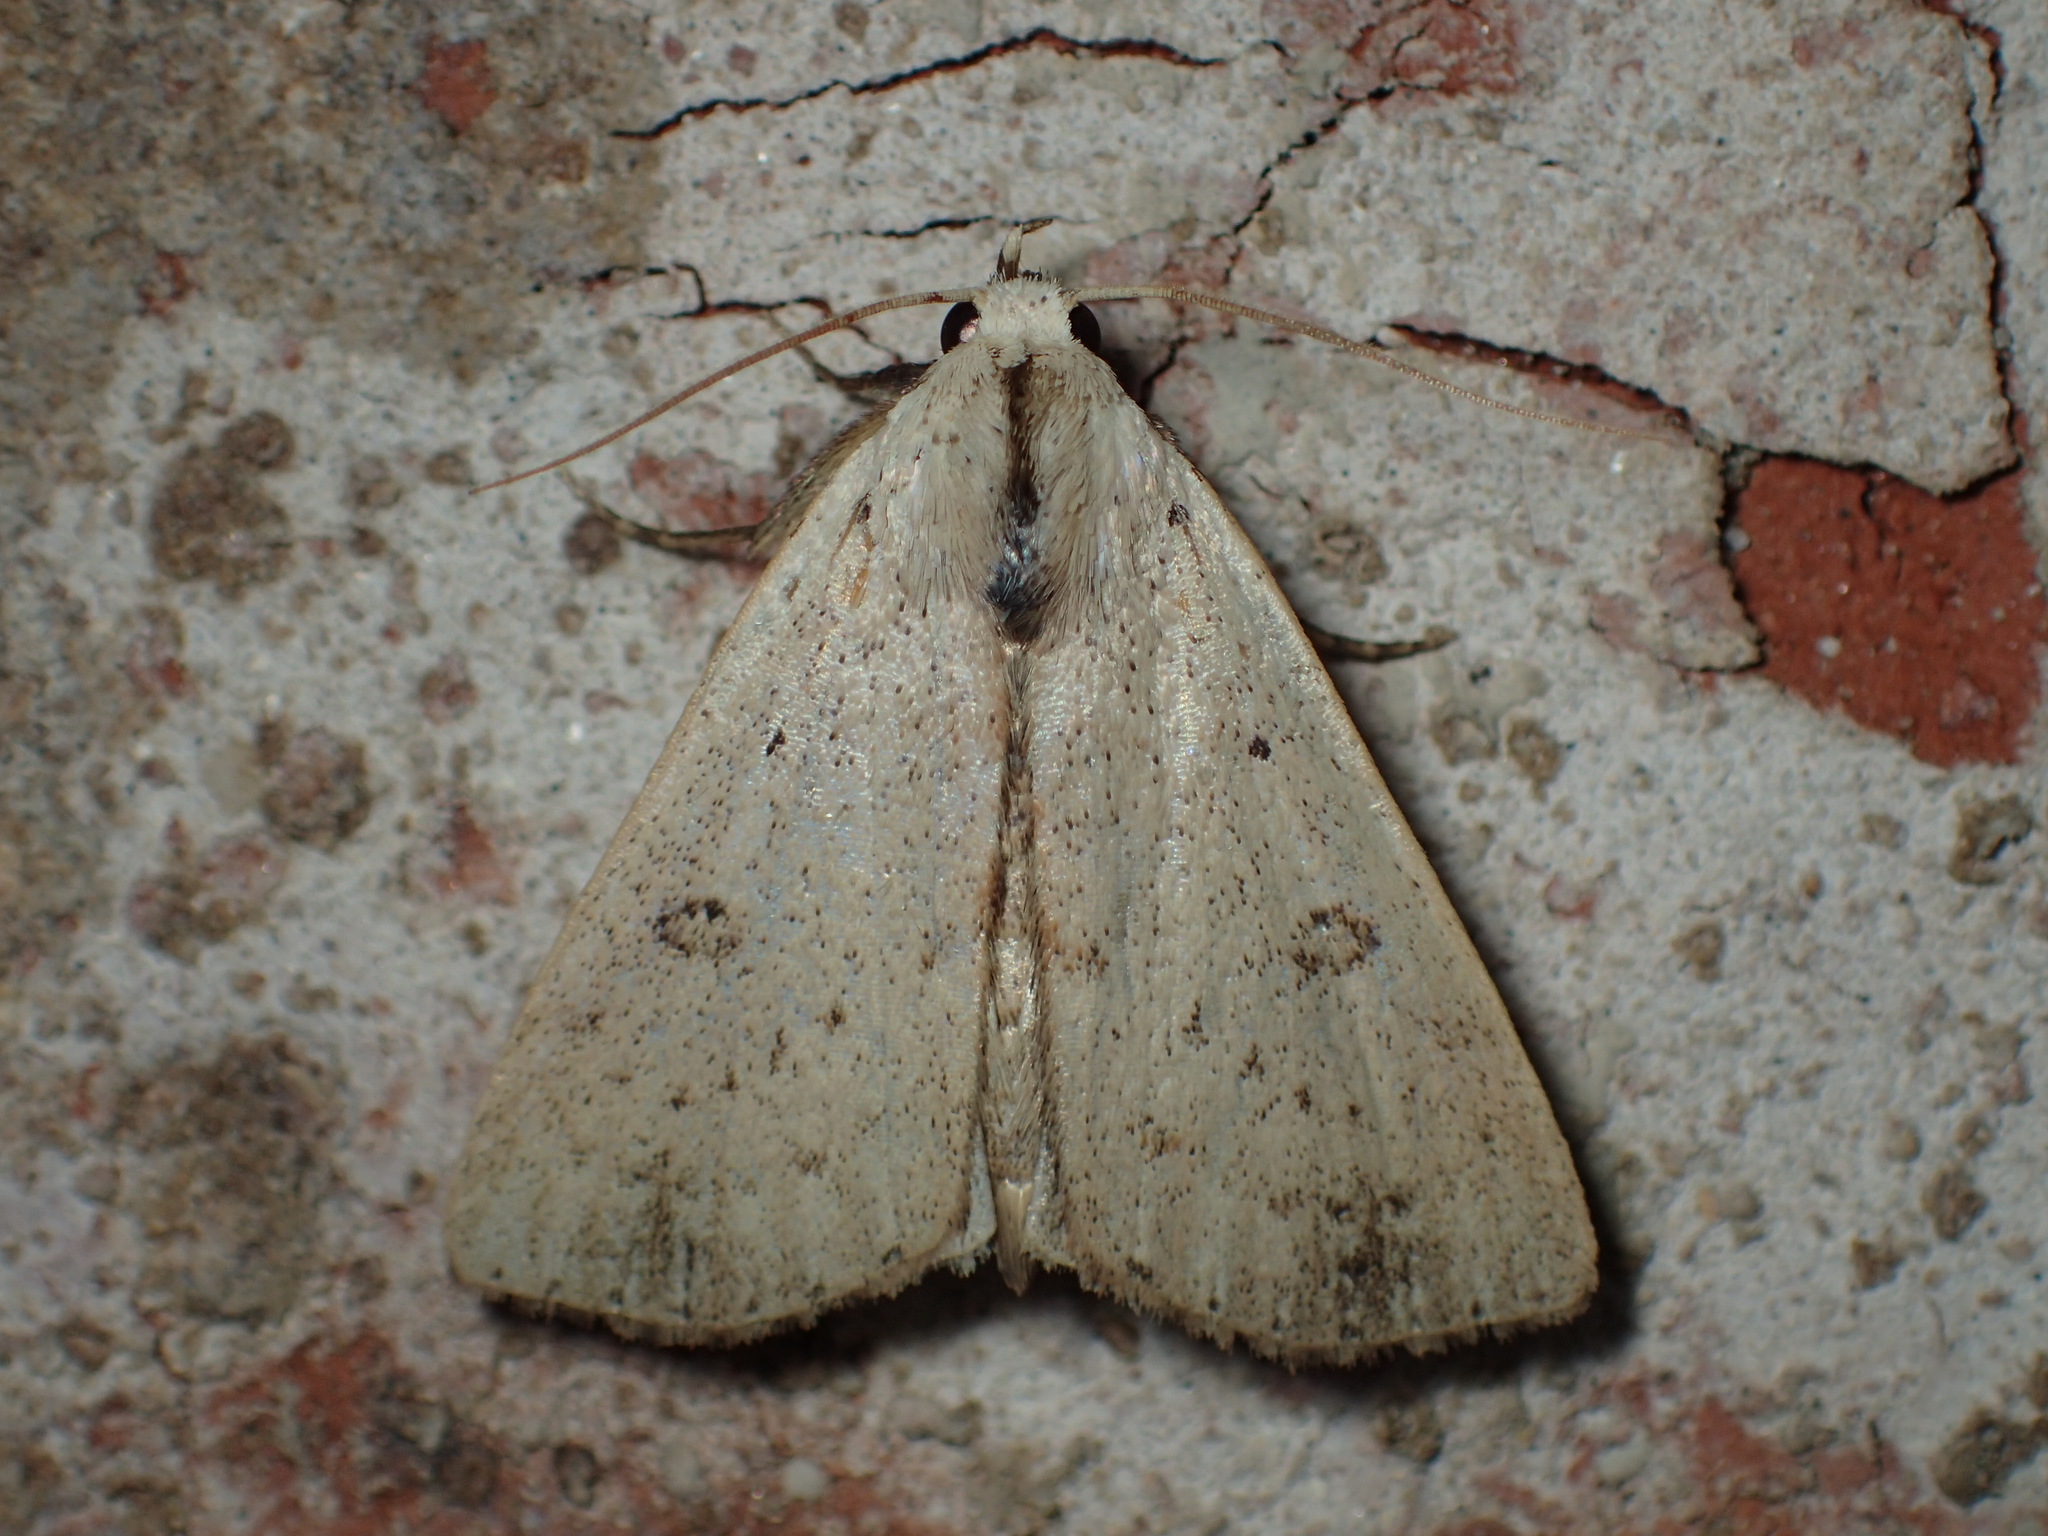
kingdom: Animalia
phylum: Arthropoda
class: Insecta
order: Lepidoptera
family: Erebidae
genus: Scolecocampa
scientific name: Scolecocampa liburna
